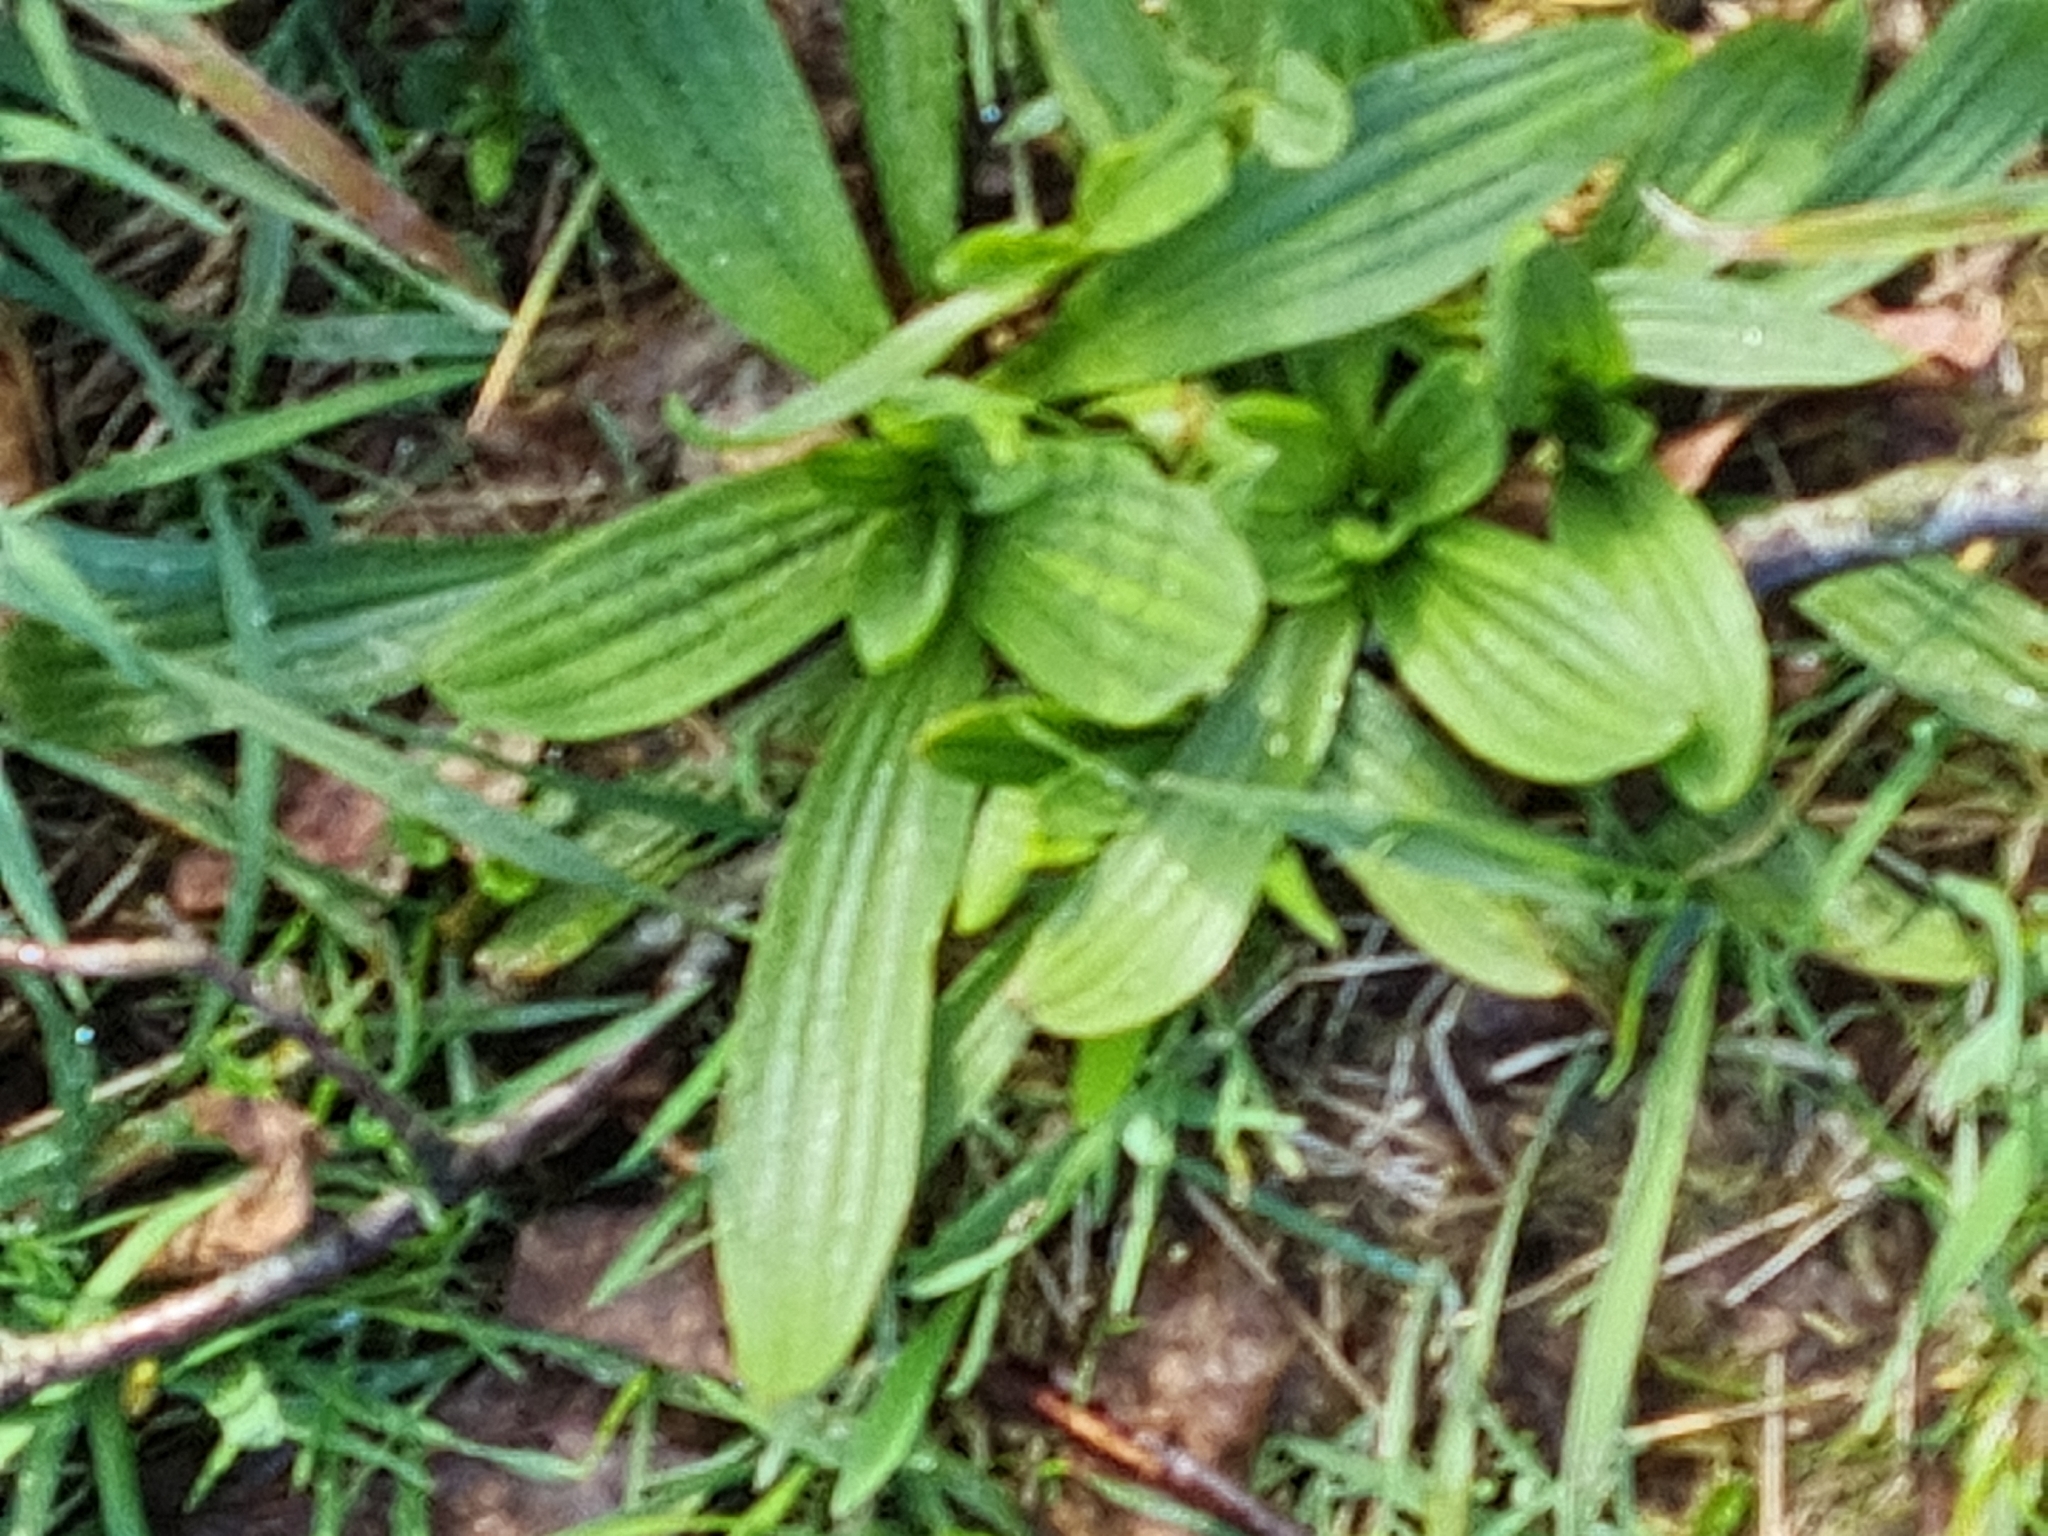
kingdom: Plantae
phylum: Tracheophyta
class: Magnoliopsida
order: Lamiales
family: Plantaginaceae
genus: Plantago
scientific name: Plantago lanceolata
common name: Ribwort plantain
